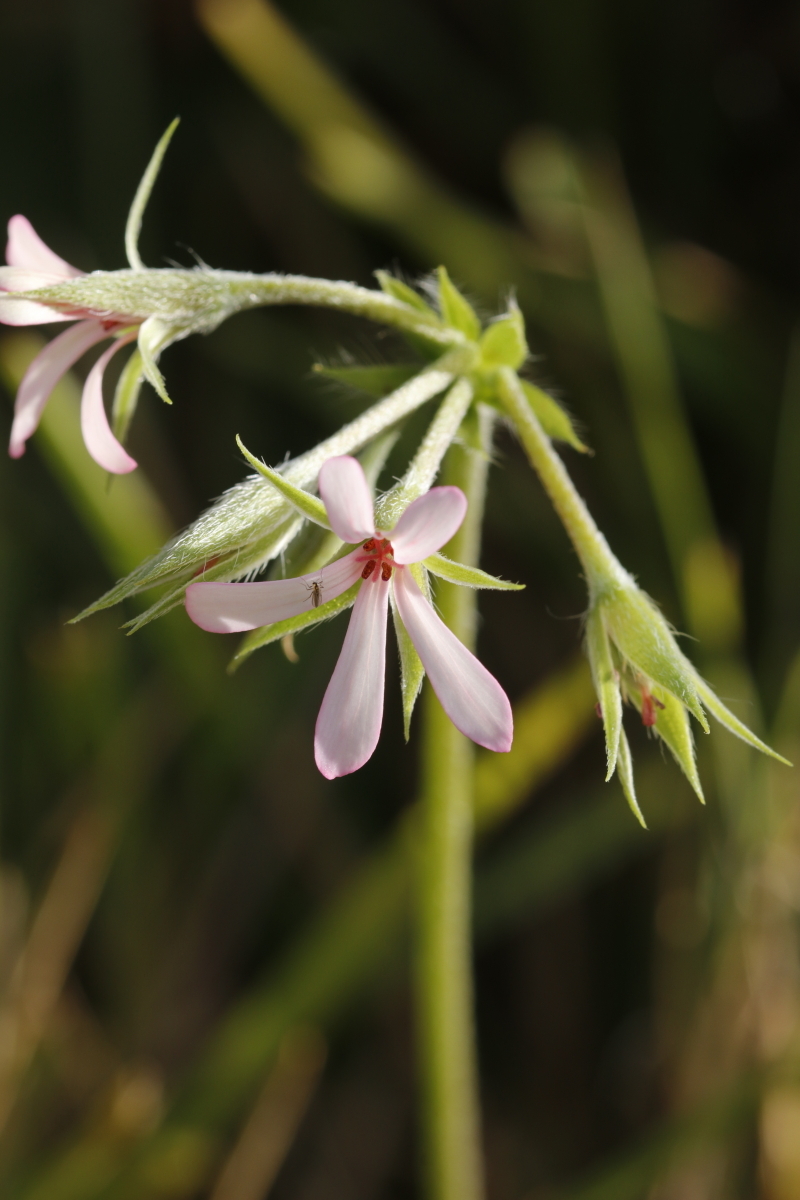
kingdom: Plantae
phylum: Tracheophyta
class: Magnoliopsida
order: Geraniales
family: Geraniaceae
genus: Pelargonium
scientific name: Pelargonium alchemilloides
